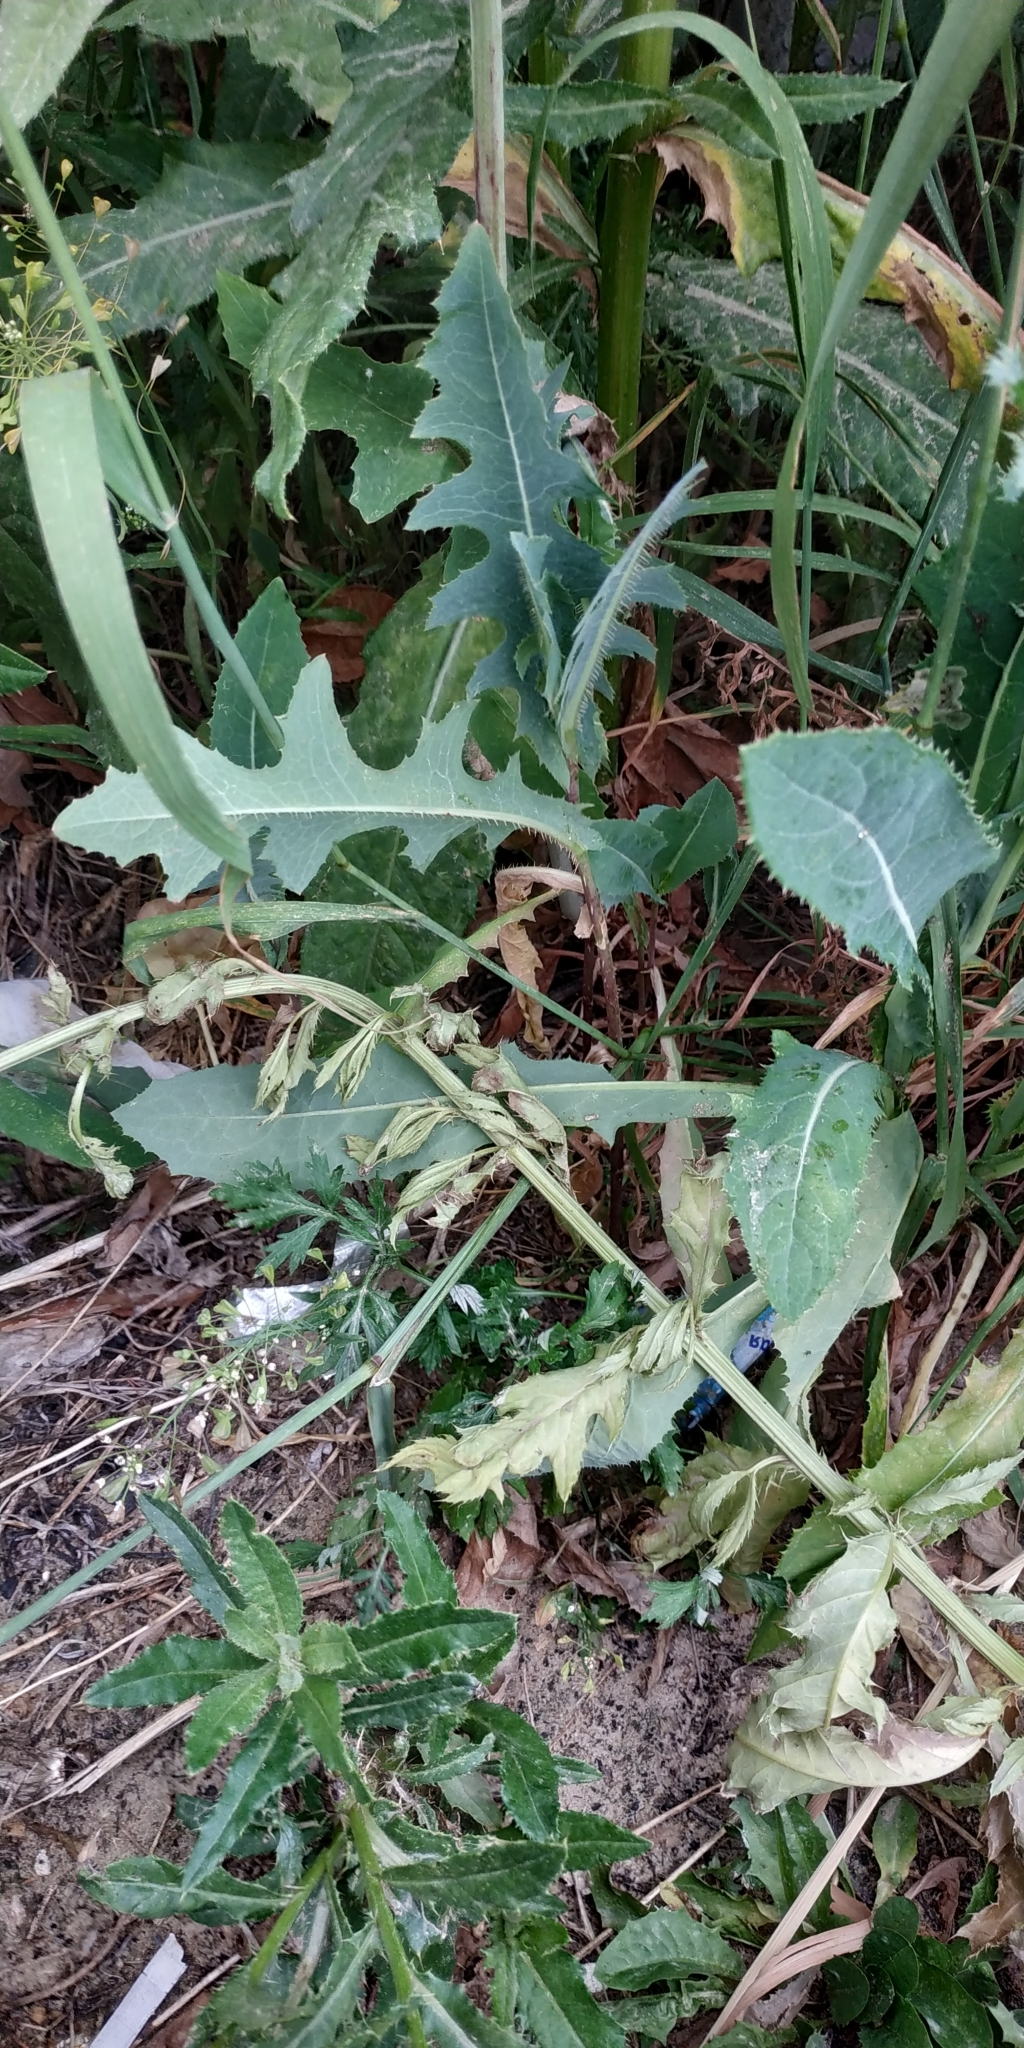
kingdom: Plantae
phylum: Tracheophyta
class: Magnoliopsida
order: Asterales
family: Asteraceae
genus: Lactuca
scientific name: Lactuca serriola
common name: Prickly lettuce
